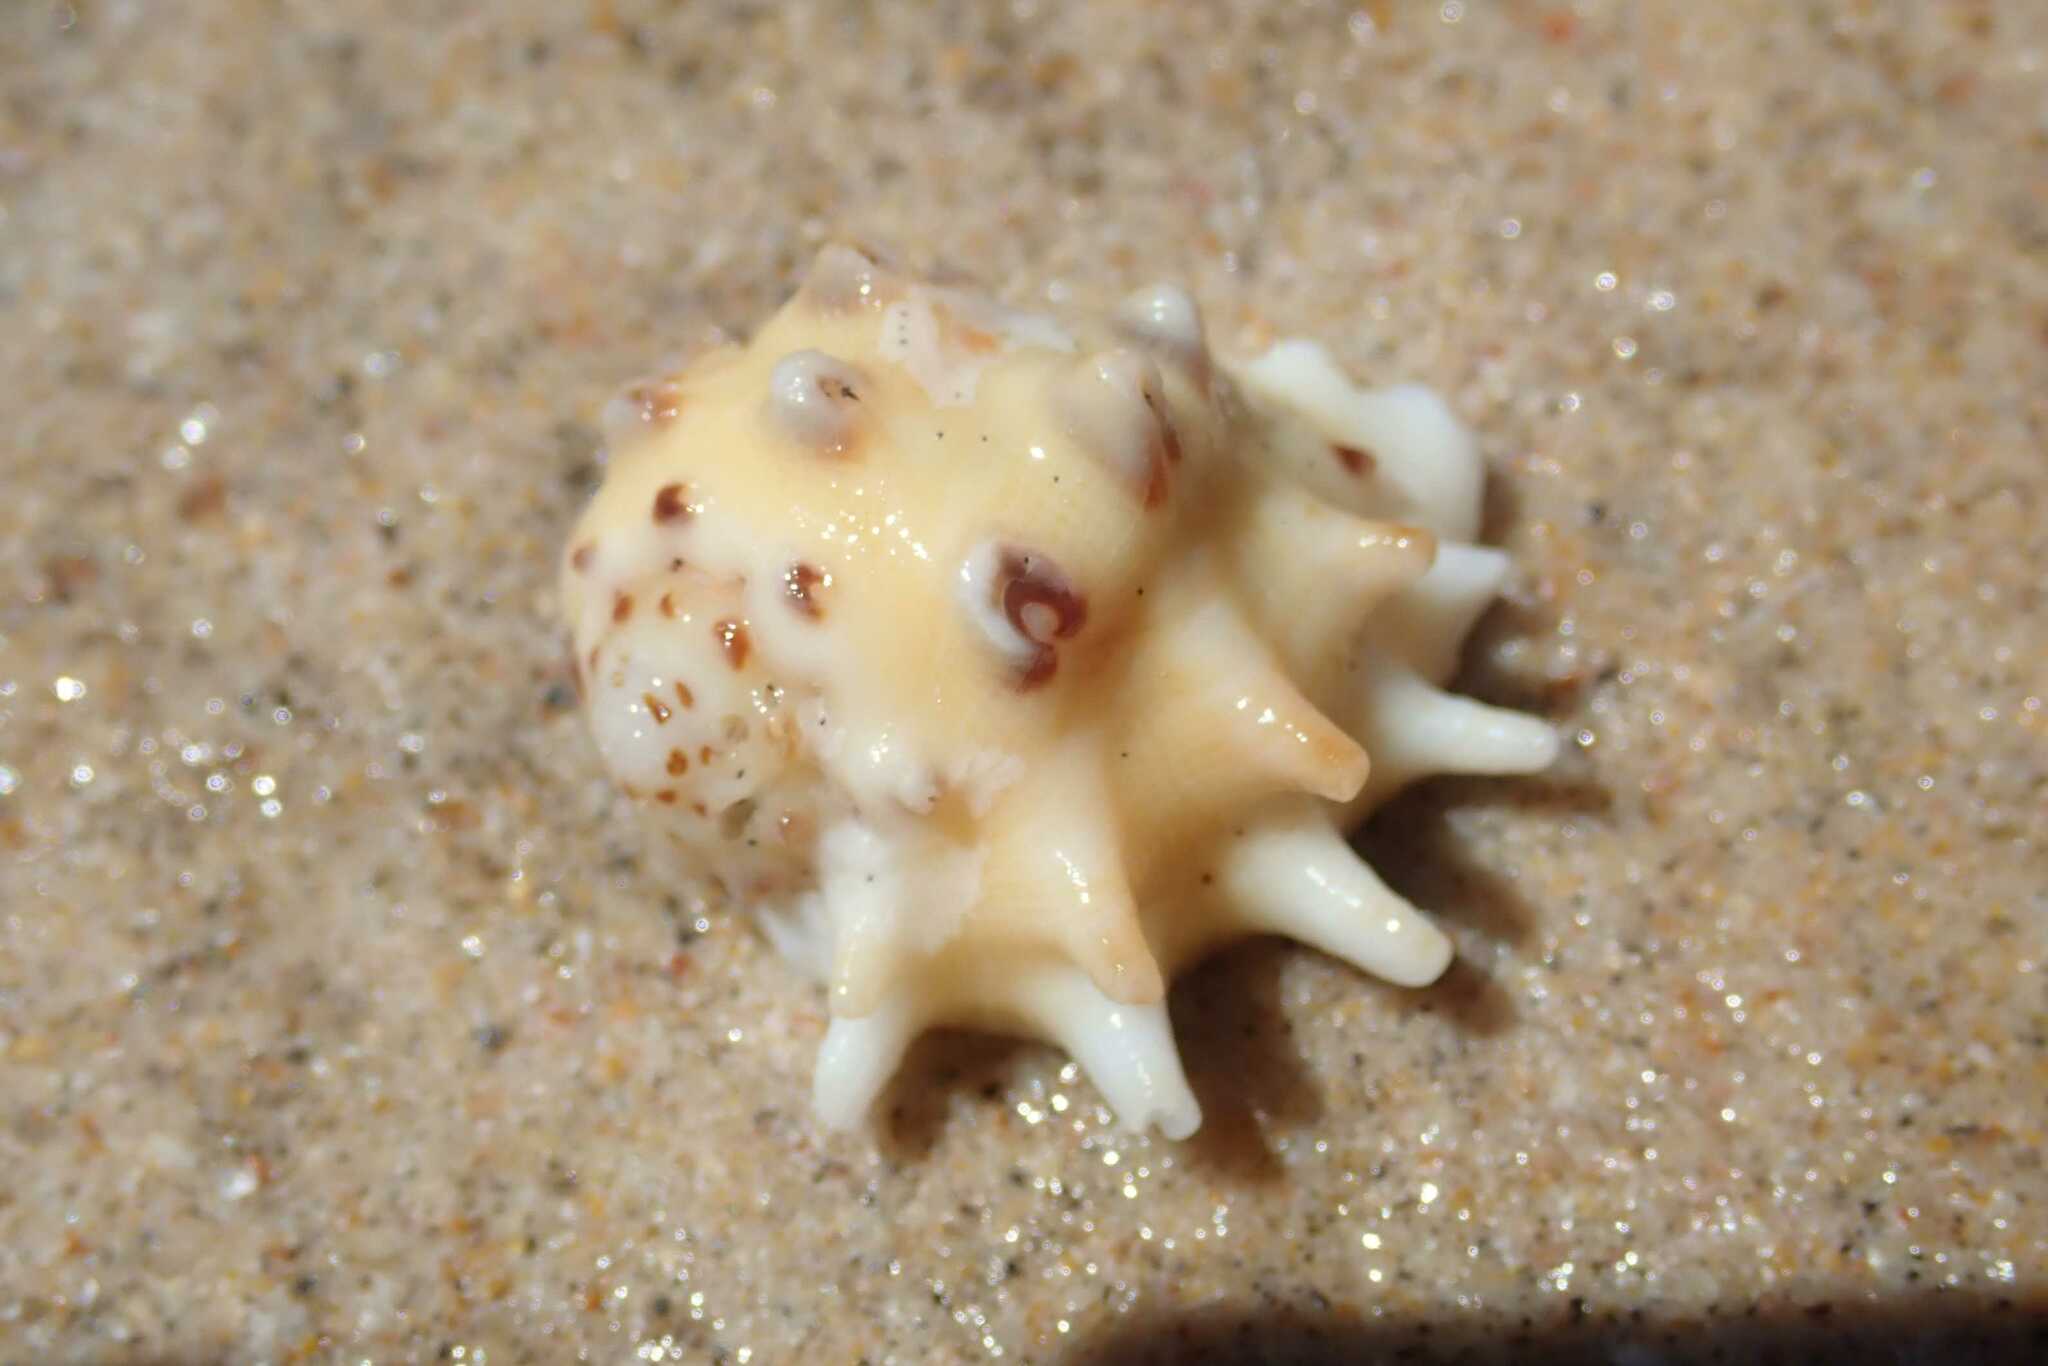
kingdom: Animalia
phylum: Mollusca
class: Gastropoda
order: Neogastropoda
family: Muricidae
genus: Drupa
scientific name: Drupa ricinus
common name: White-lipped castor bean
